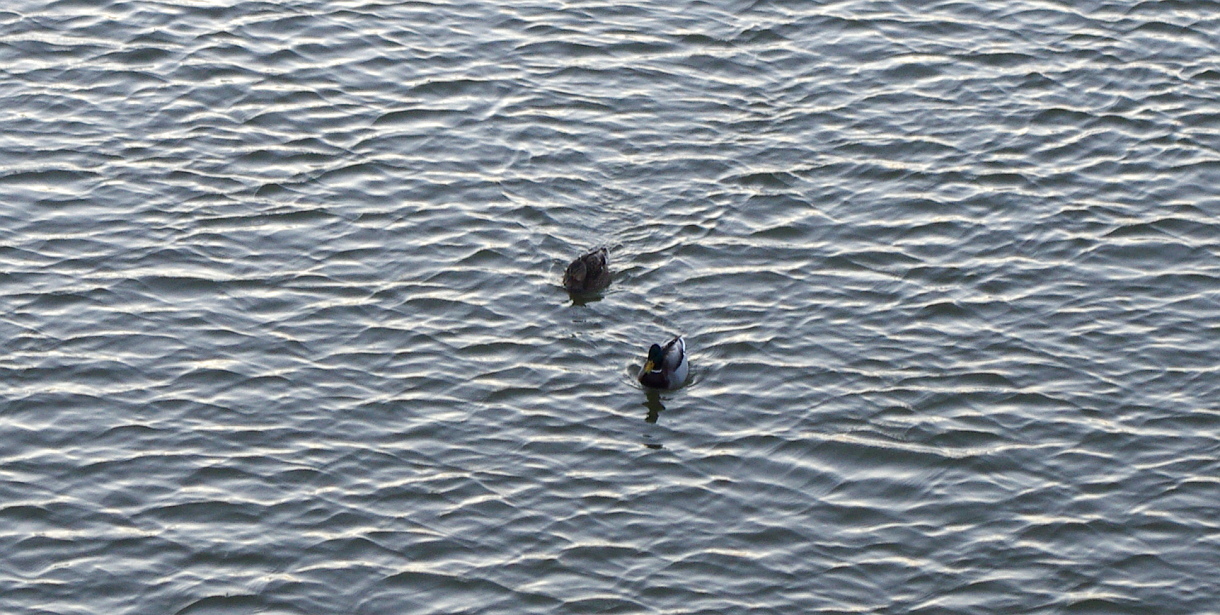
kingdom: Animalia
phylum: Chordata
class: Aves
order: Anseriformes
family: Anatidae
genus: Anas
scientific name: Anas platyrhynchos
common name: Mallard
